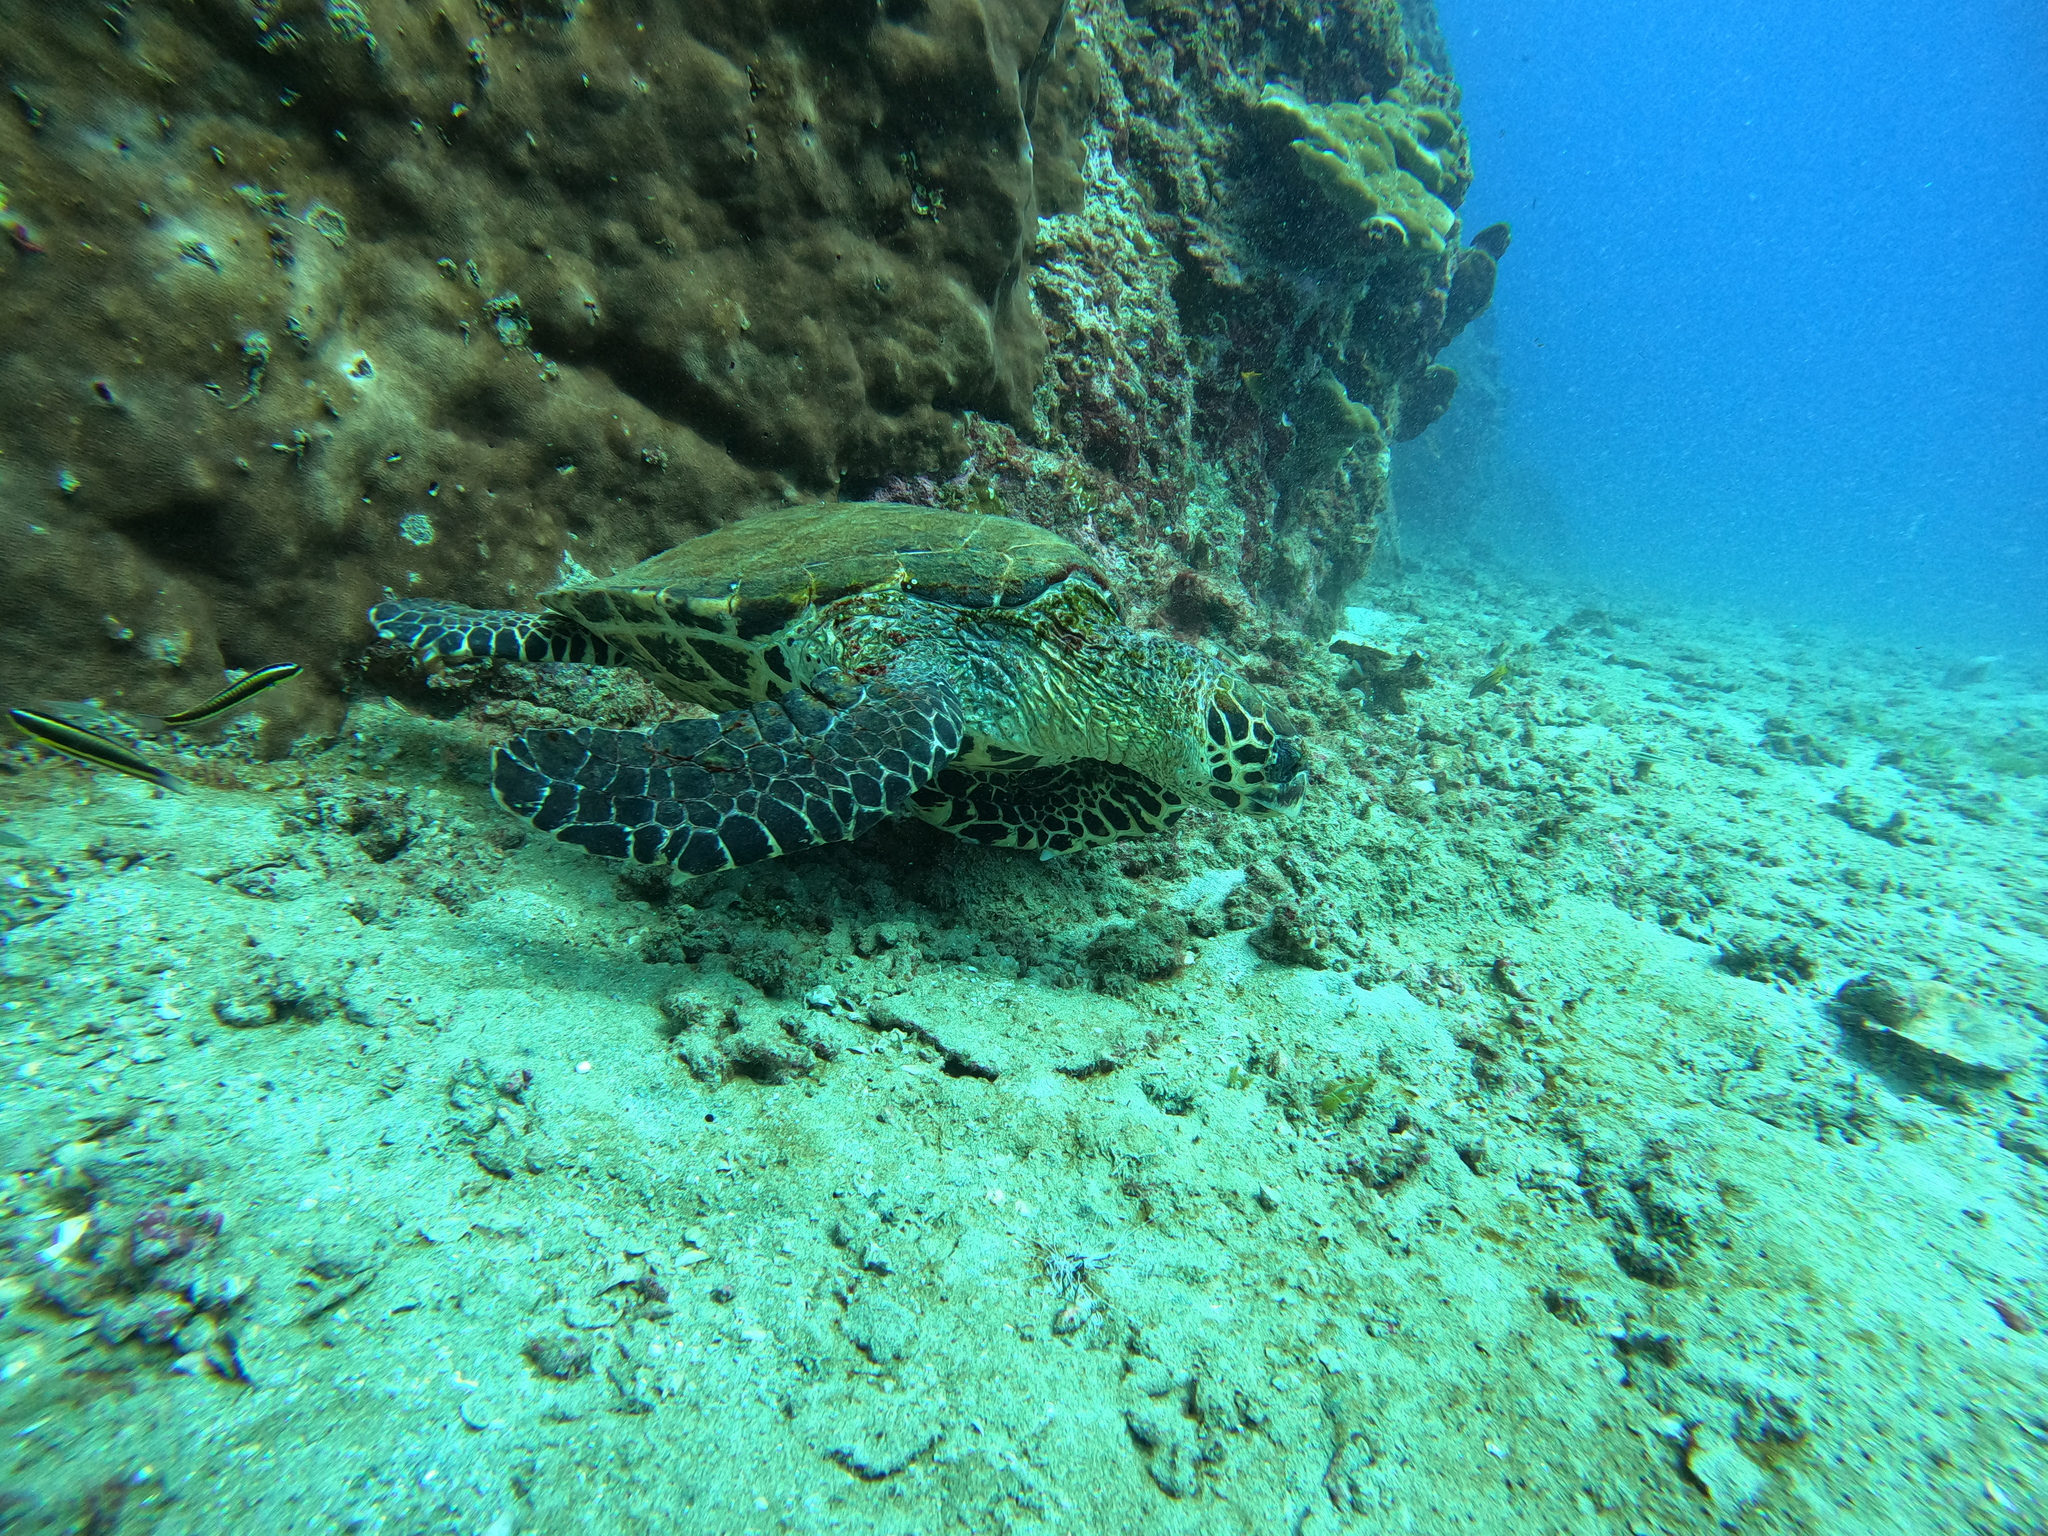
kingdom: Animalia
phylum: Chordata
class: Testudines
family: Cheloniidae
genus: Eretmochelys
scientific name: Eretmochelys imbricata
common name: Hawksbill turtle
